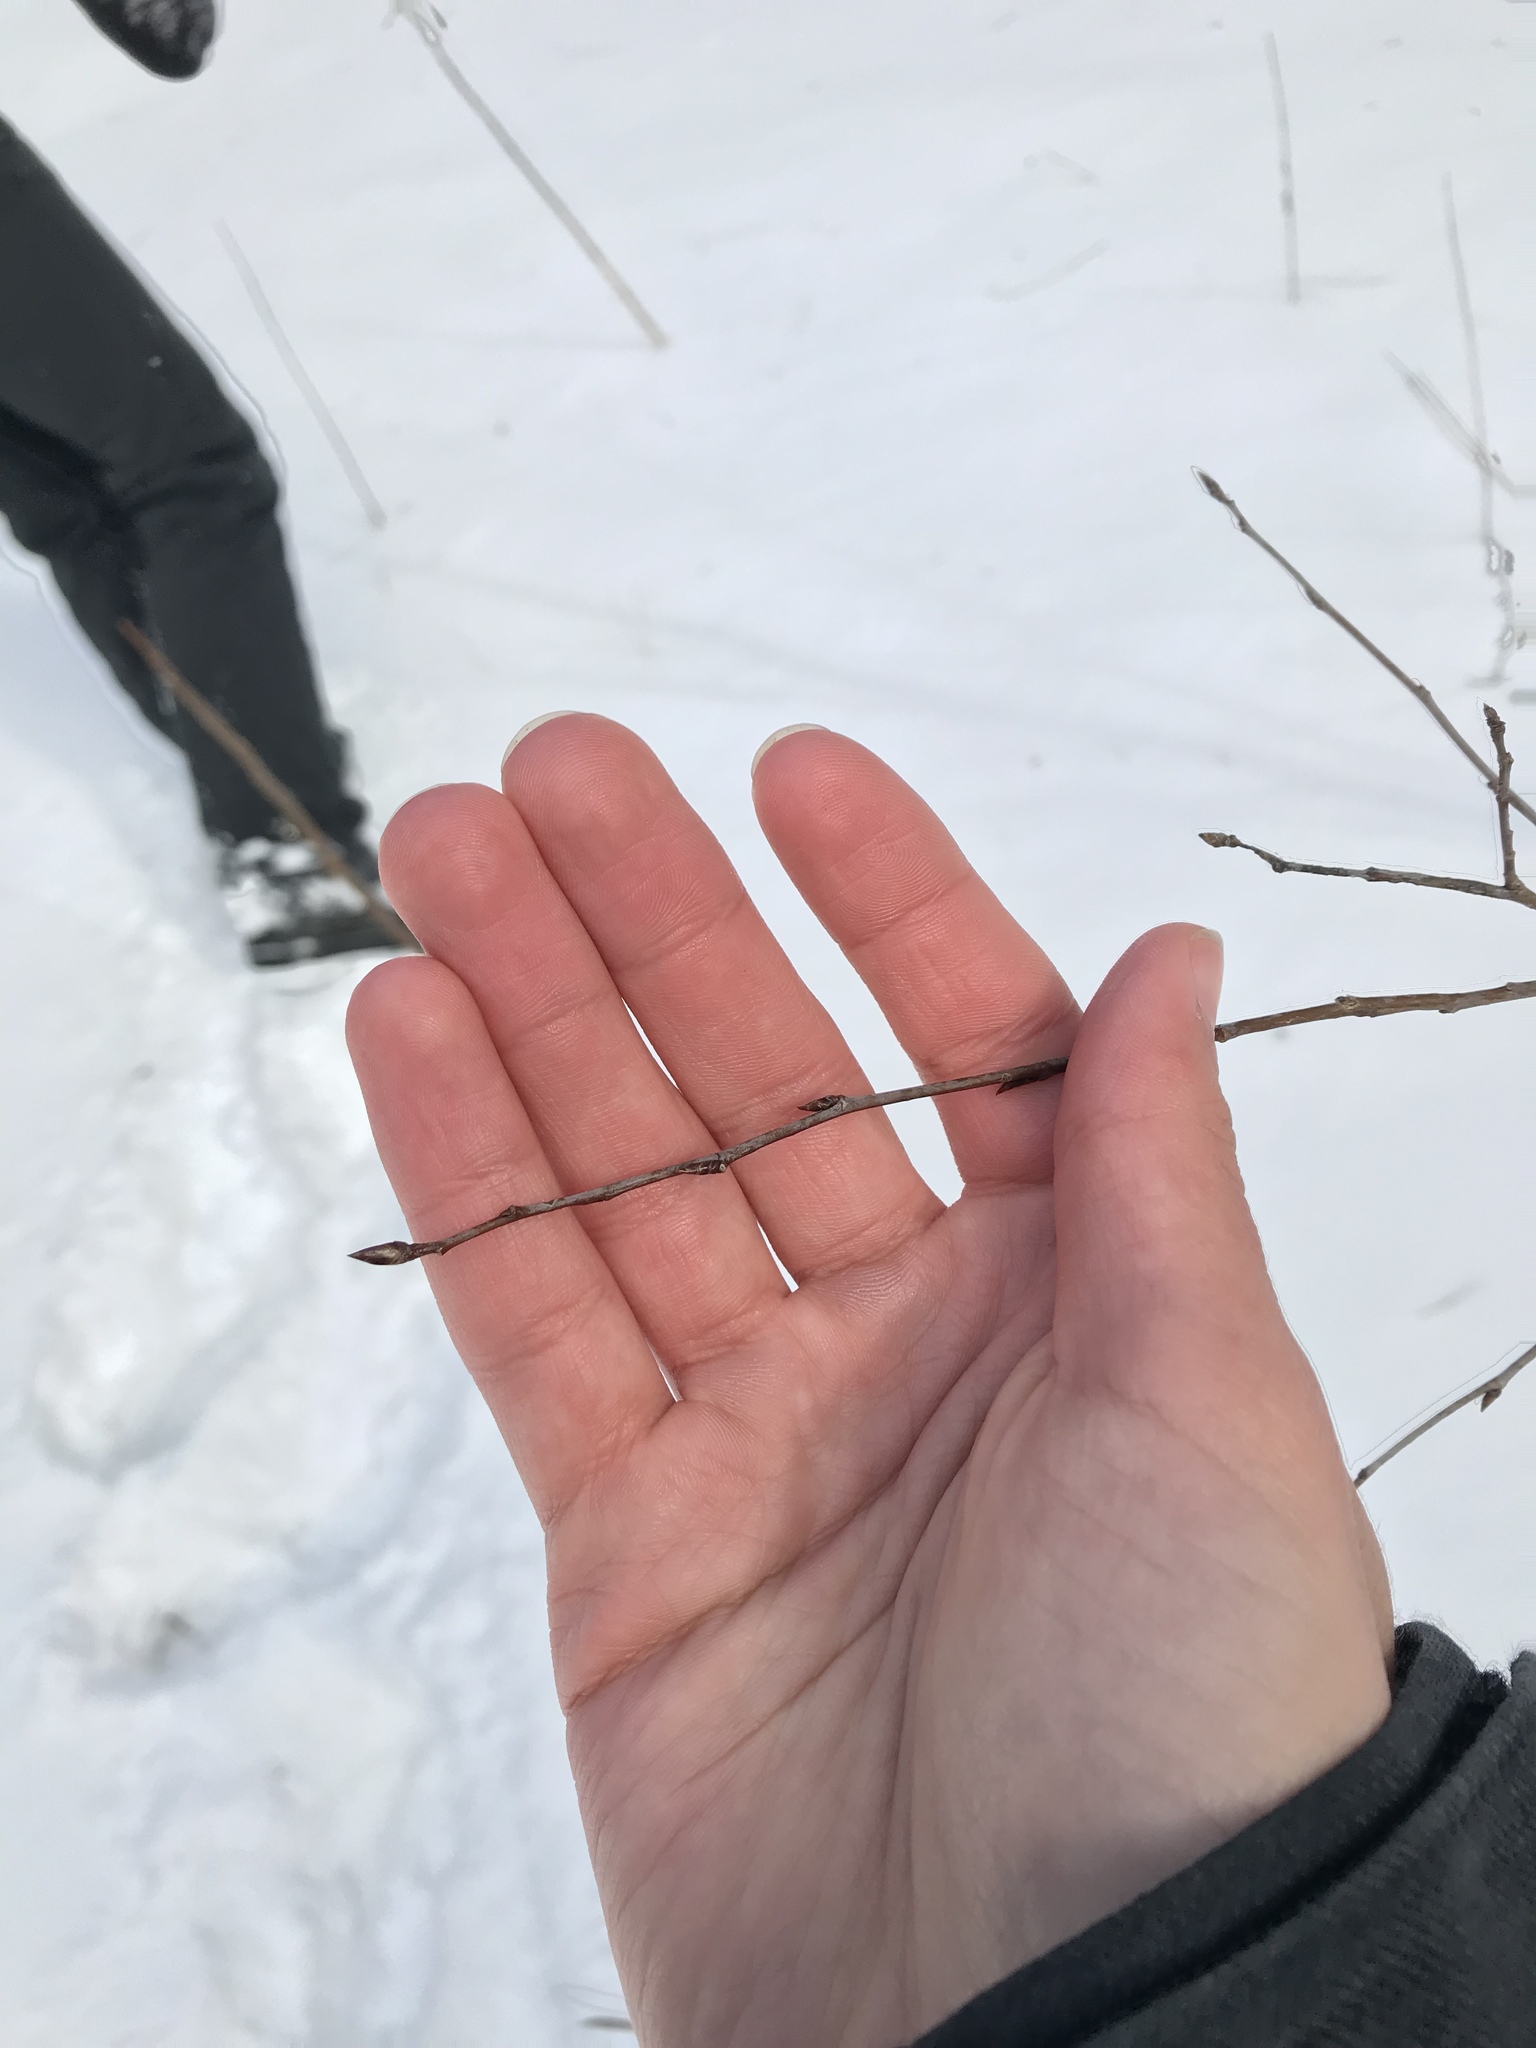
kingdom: Plantae
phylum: Tracheophyta
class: Magnoliopsida
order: Malpighiales
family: Salicaceae
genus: Populus
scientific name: Populus tremuloides
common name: Quaking aspen
